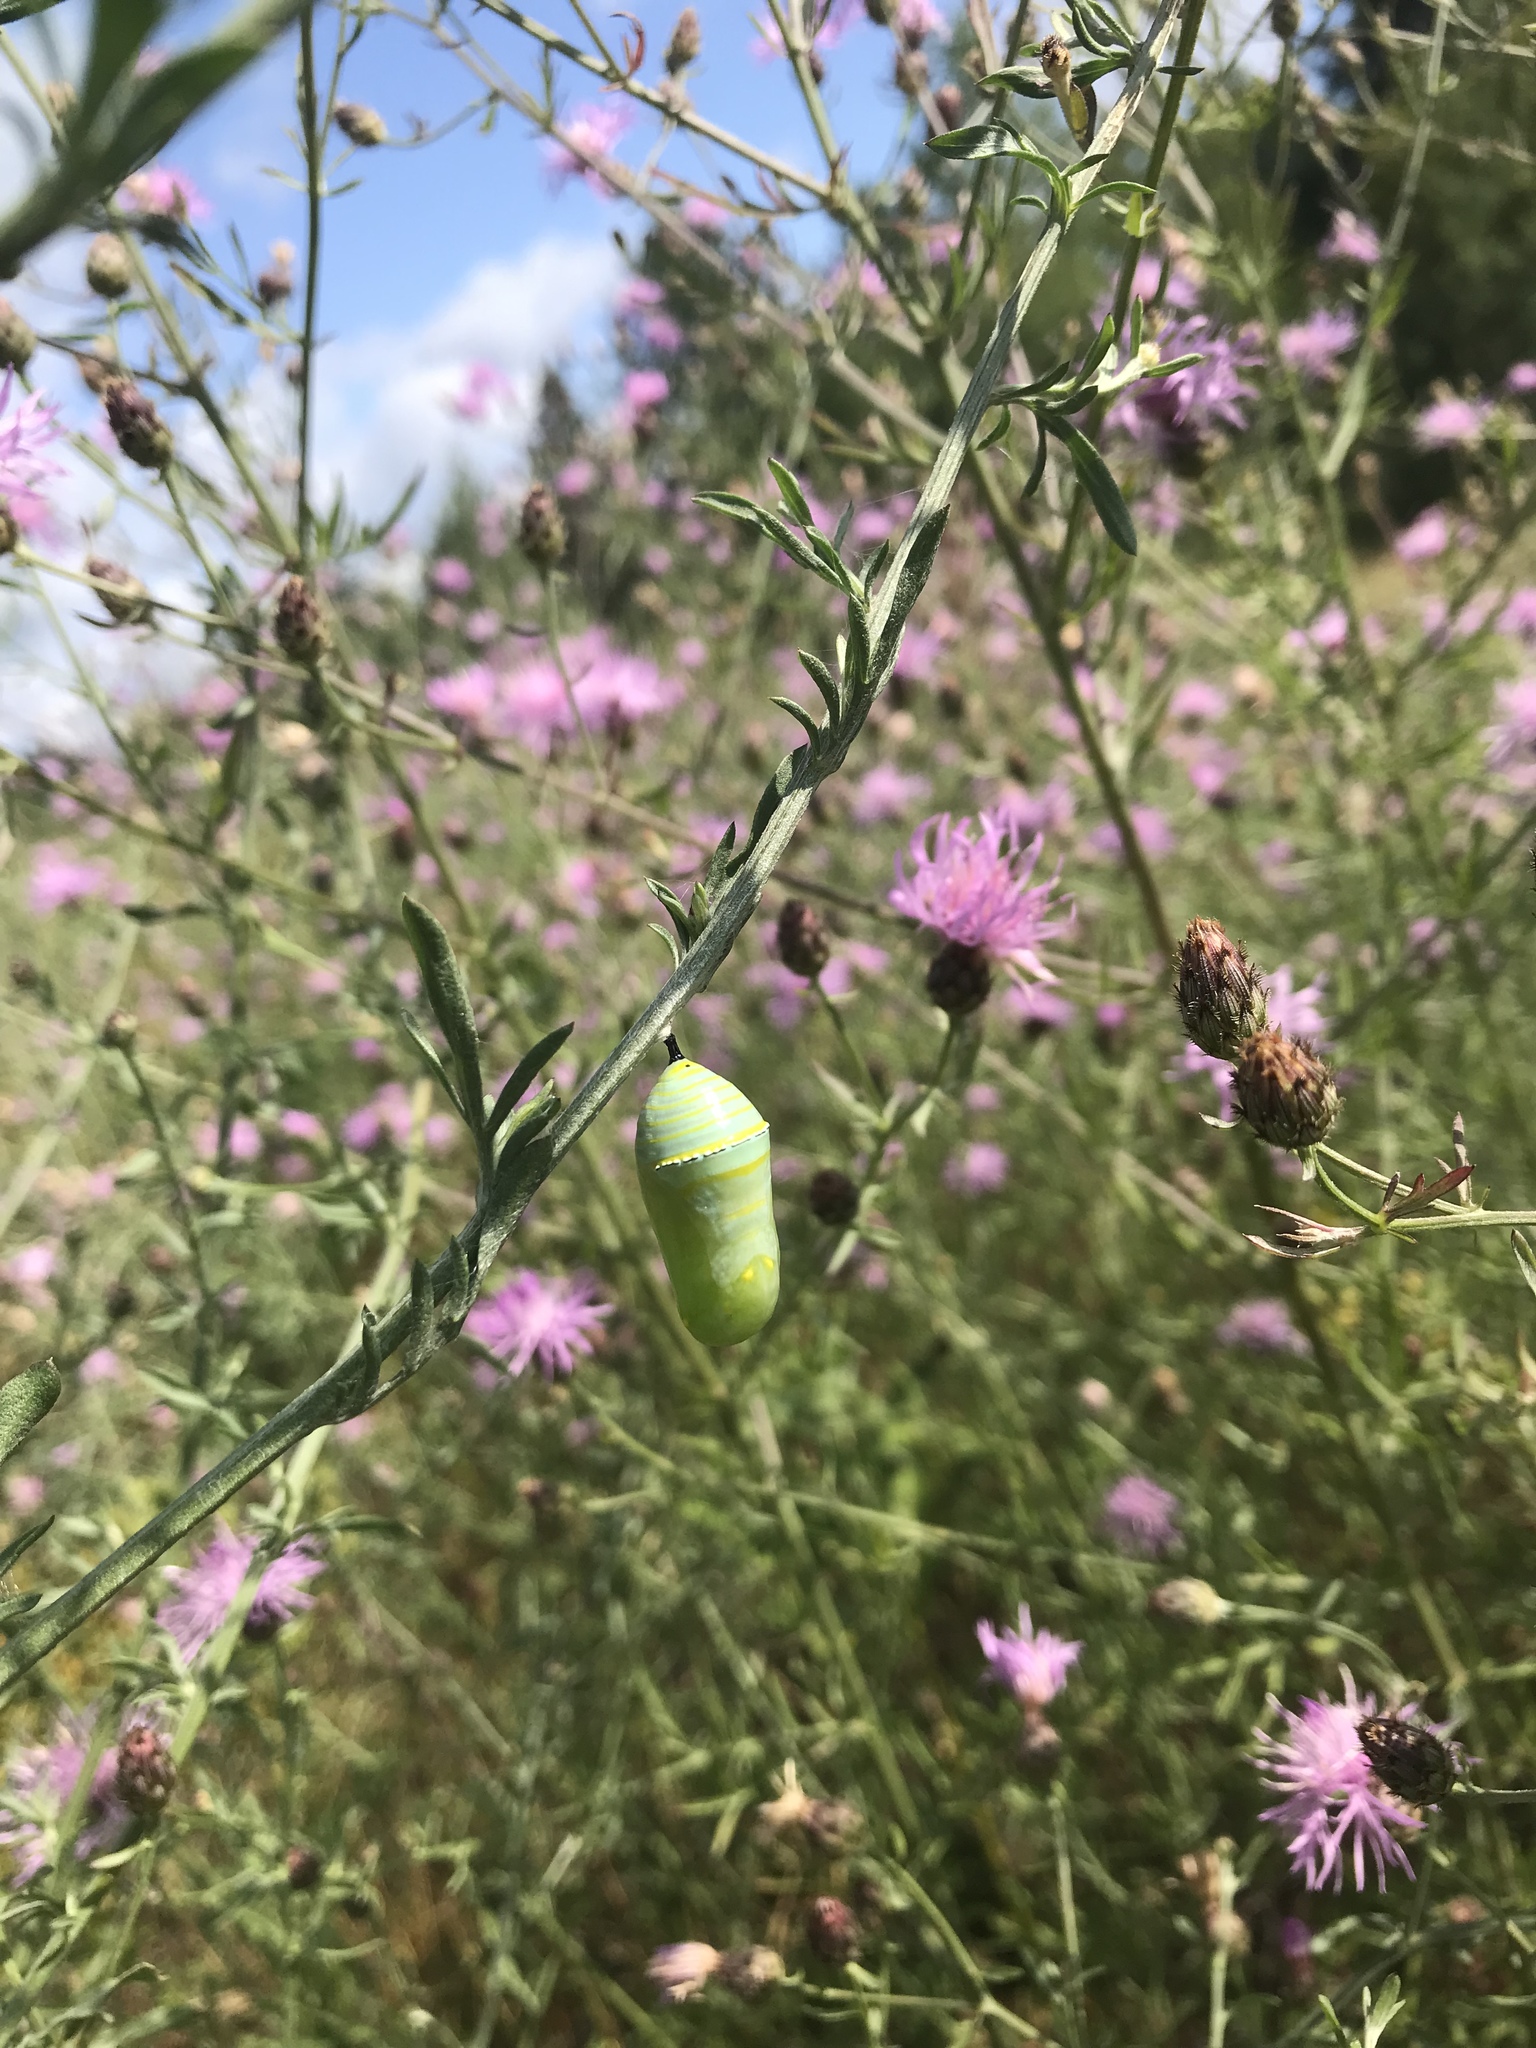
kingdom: Animalia
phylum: Arthropoda
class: Insecta
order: Lepidoptera
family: Nymphalidae
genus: Danaus
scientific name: Danaus plexippus
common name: Monarch
